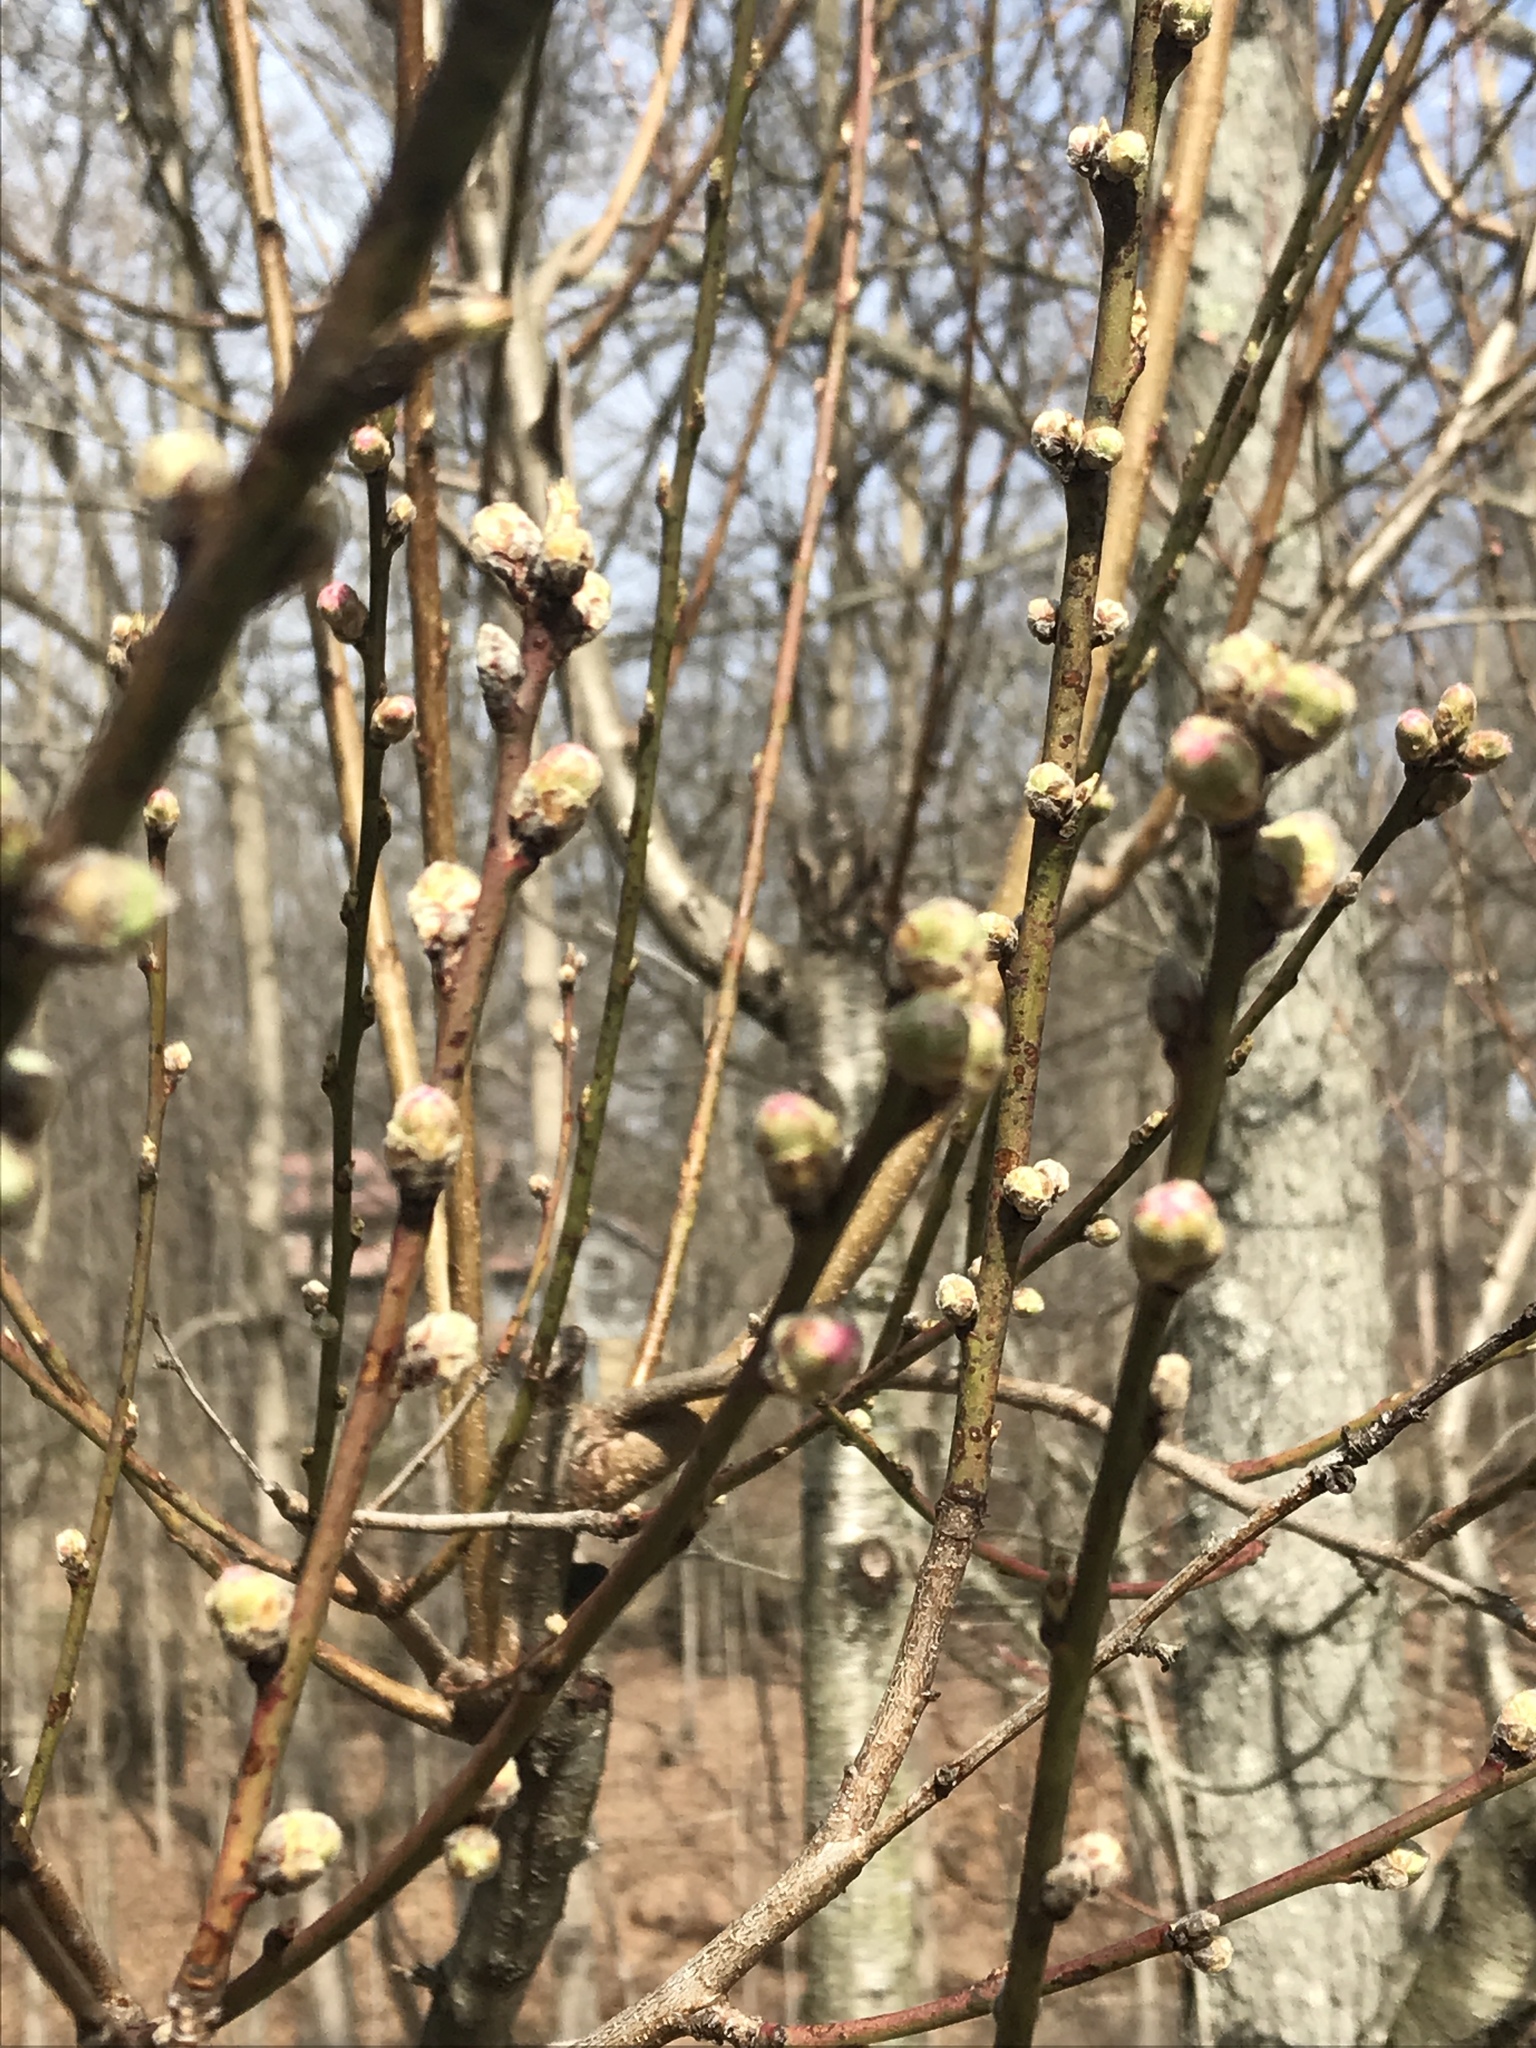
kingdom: Plantae
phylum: Tracheophyta
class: Magnoliopsida
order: Rosales
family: Rosaceae
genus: Prunus
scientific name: Prunus persica
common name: Peach
